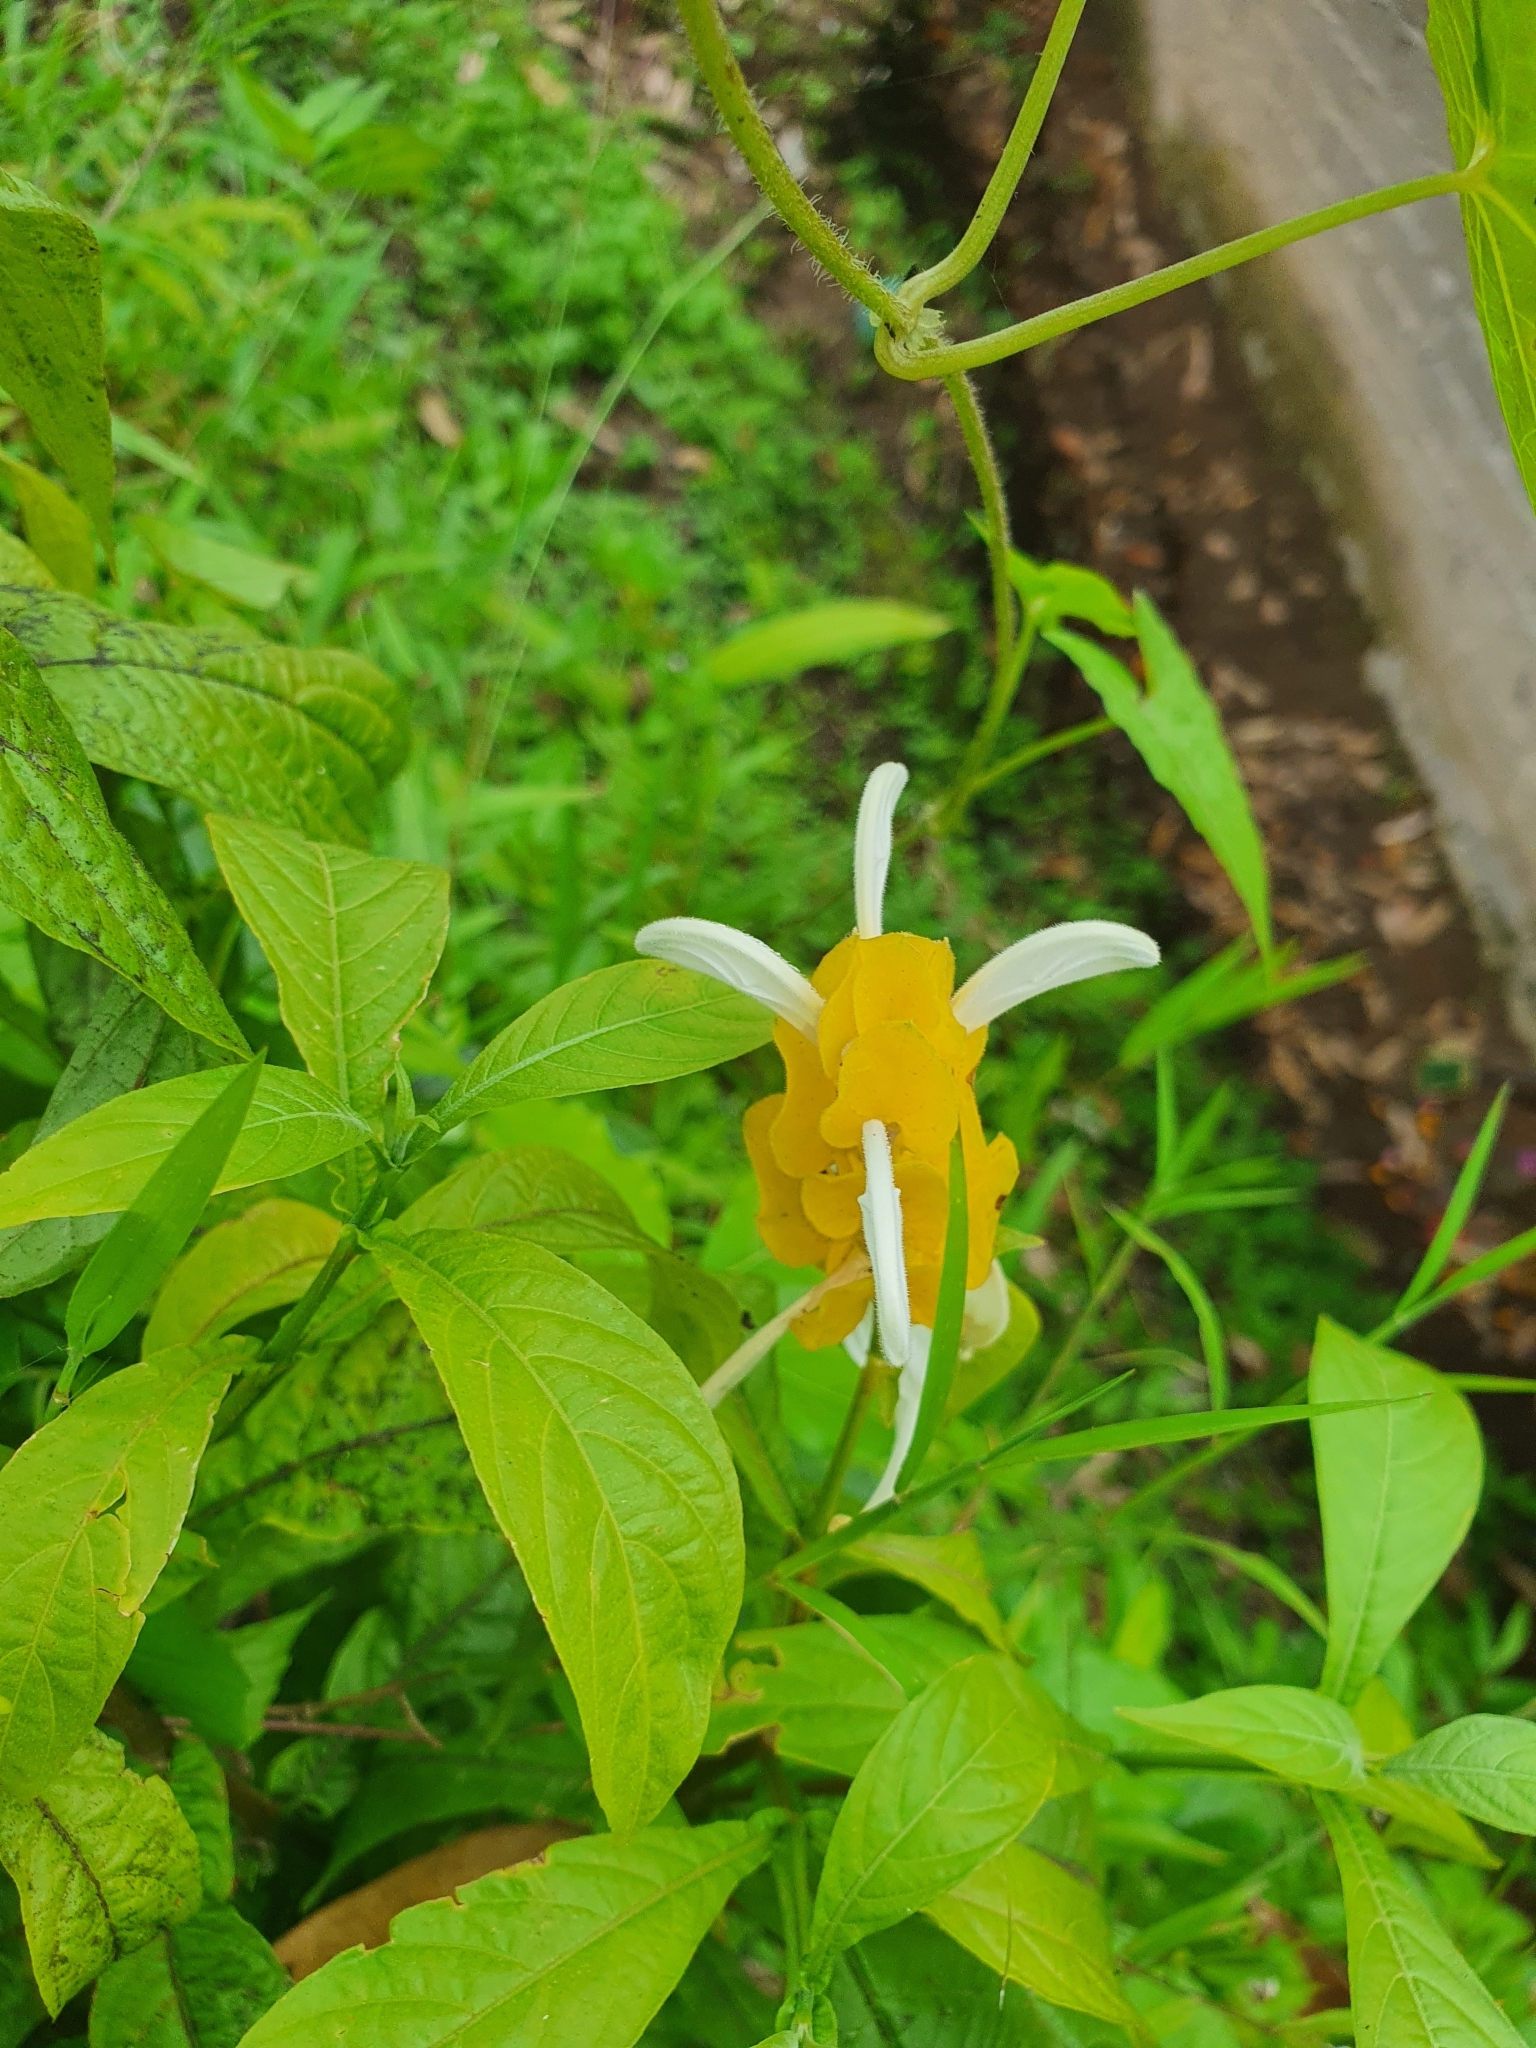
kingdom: Plantae
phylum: Tracheophyta
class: Magnoliopsida
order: Lamiales
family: Acanthaceae
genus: Pachystachys
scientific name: Pachystachys lutea
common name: Golden shrimp-plant
